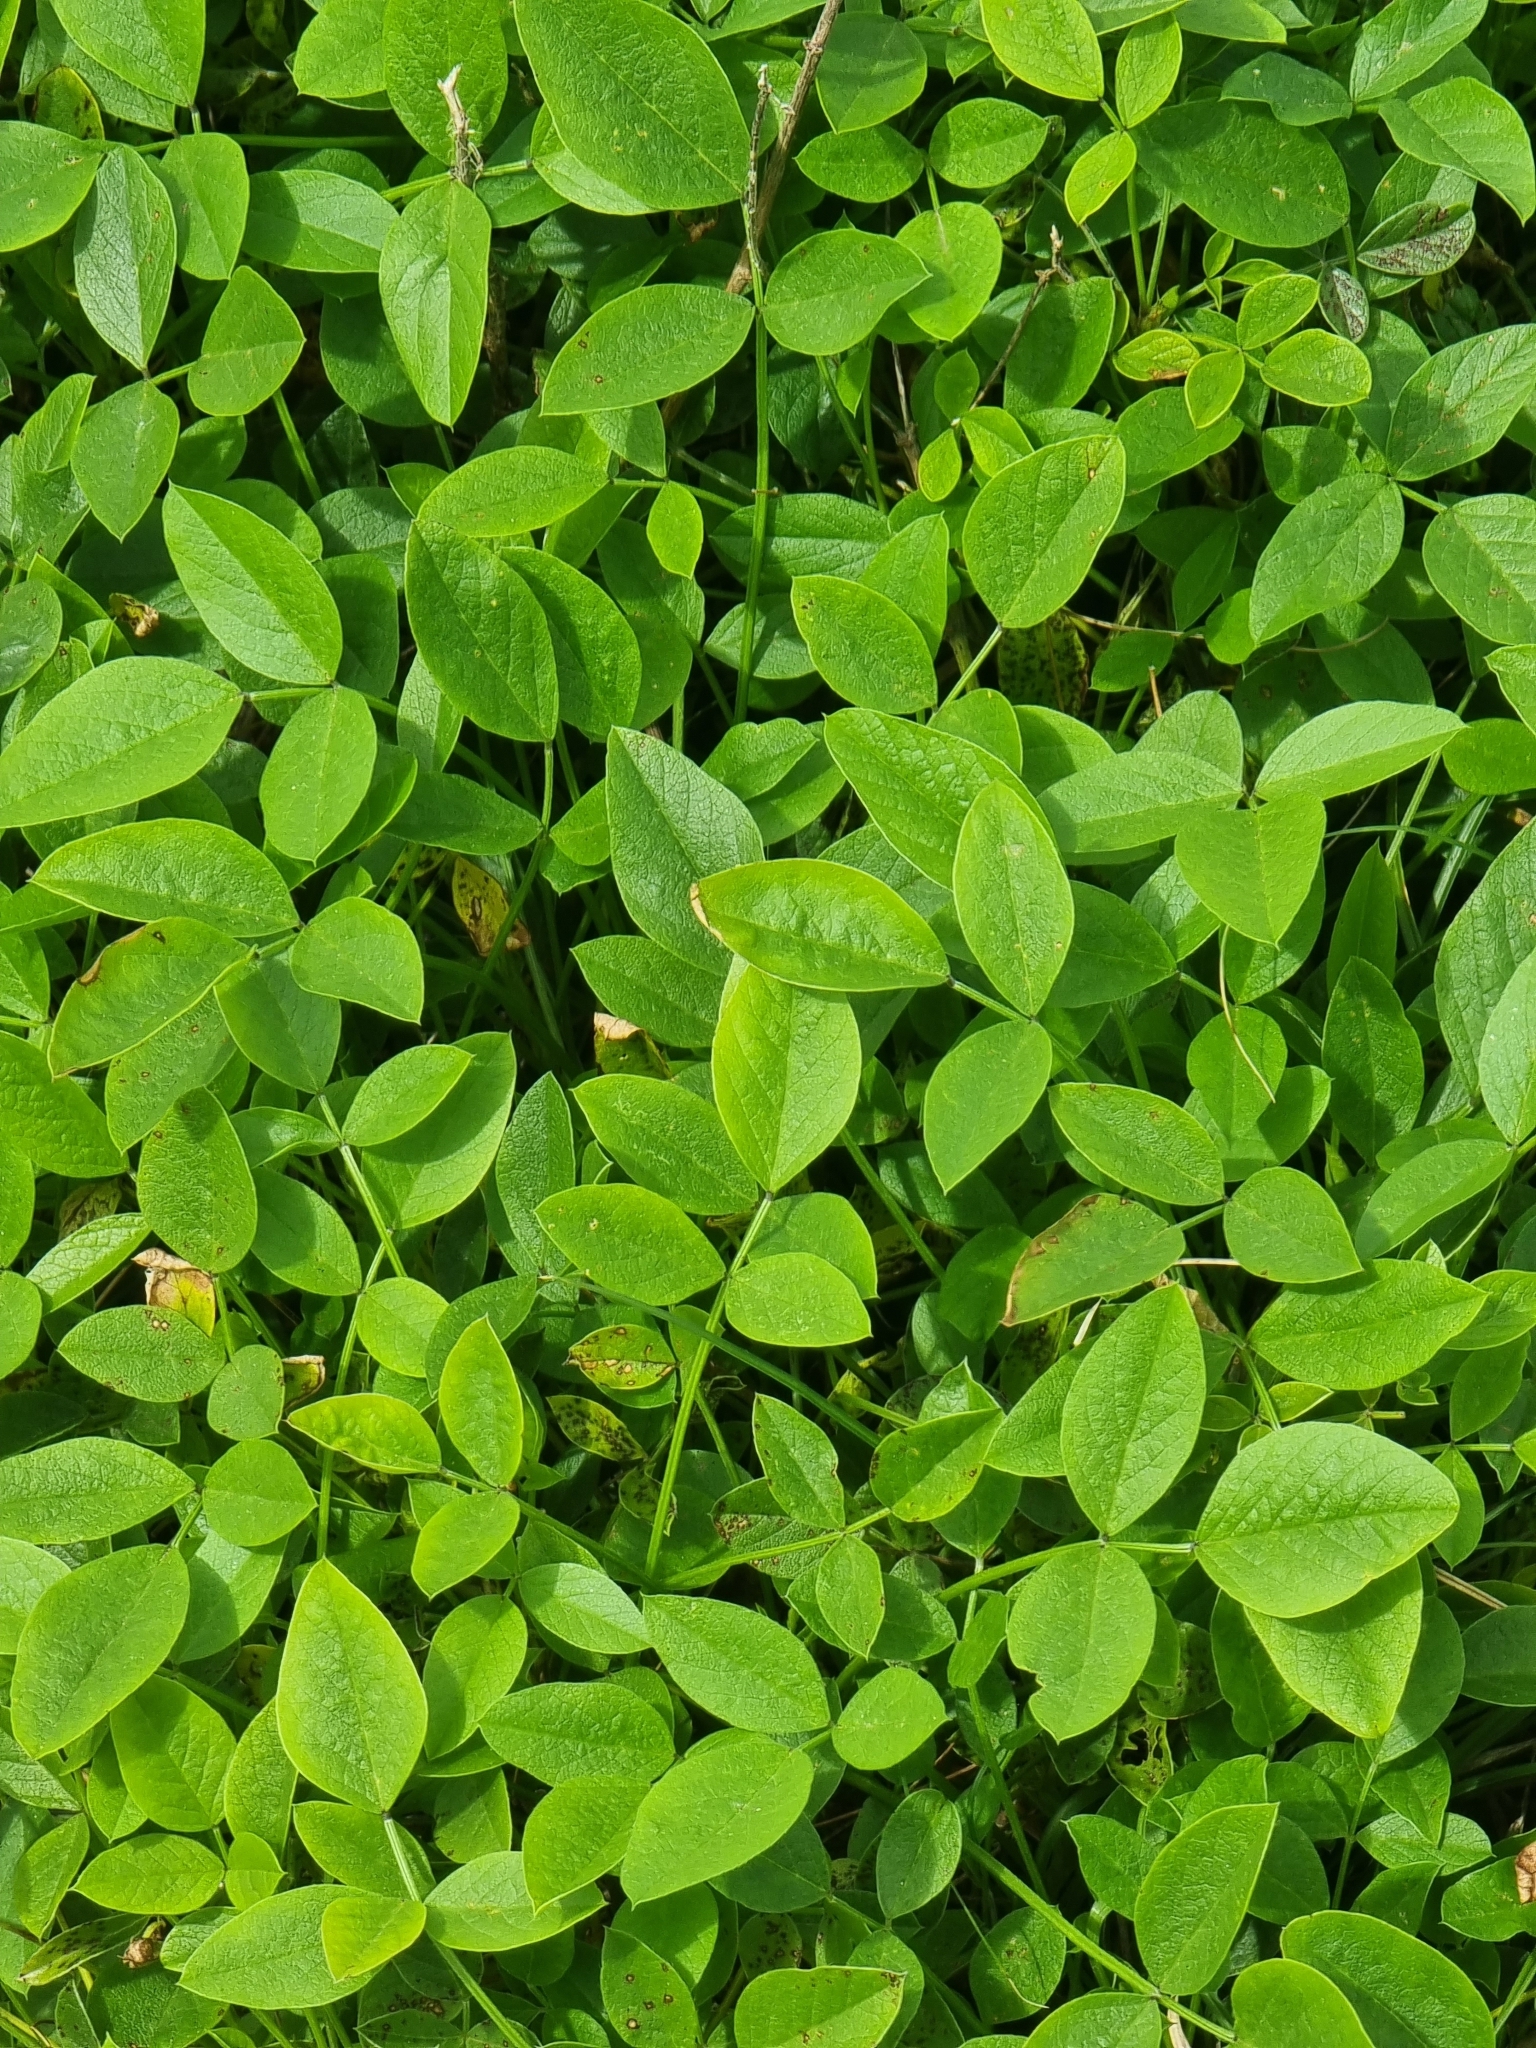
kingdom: Plantae
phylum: Tracheophyta
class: Magnoliopsida
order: Fabales
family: Fabaceae
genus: Bituminaria
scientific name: Bituminaria bituminosa
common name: Arabian pea
